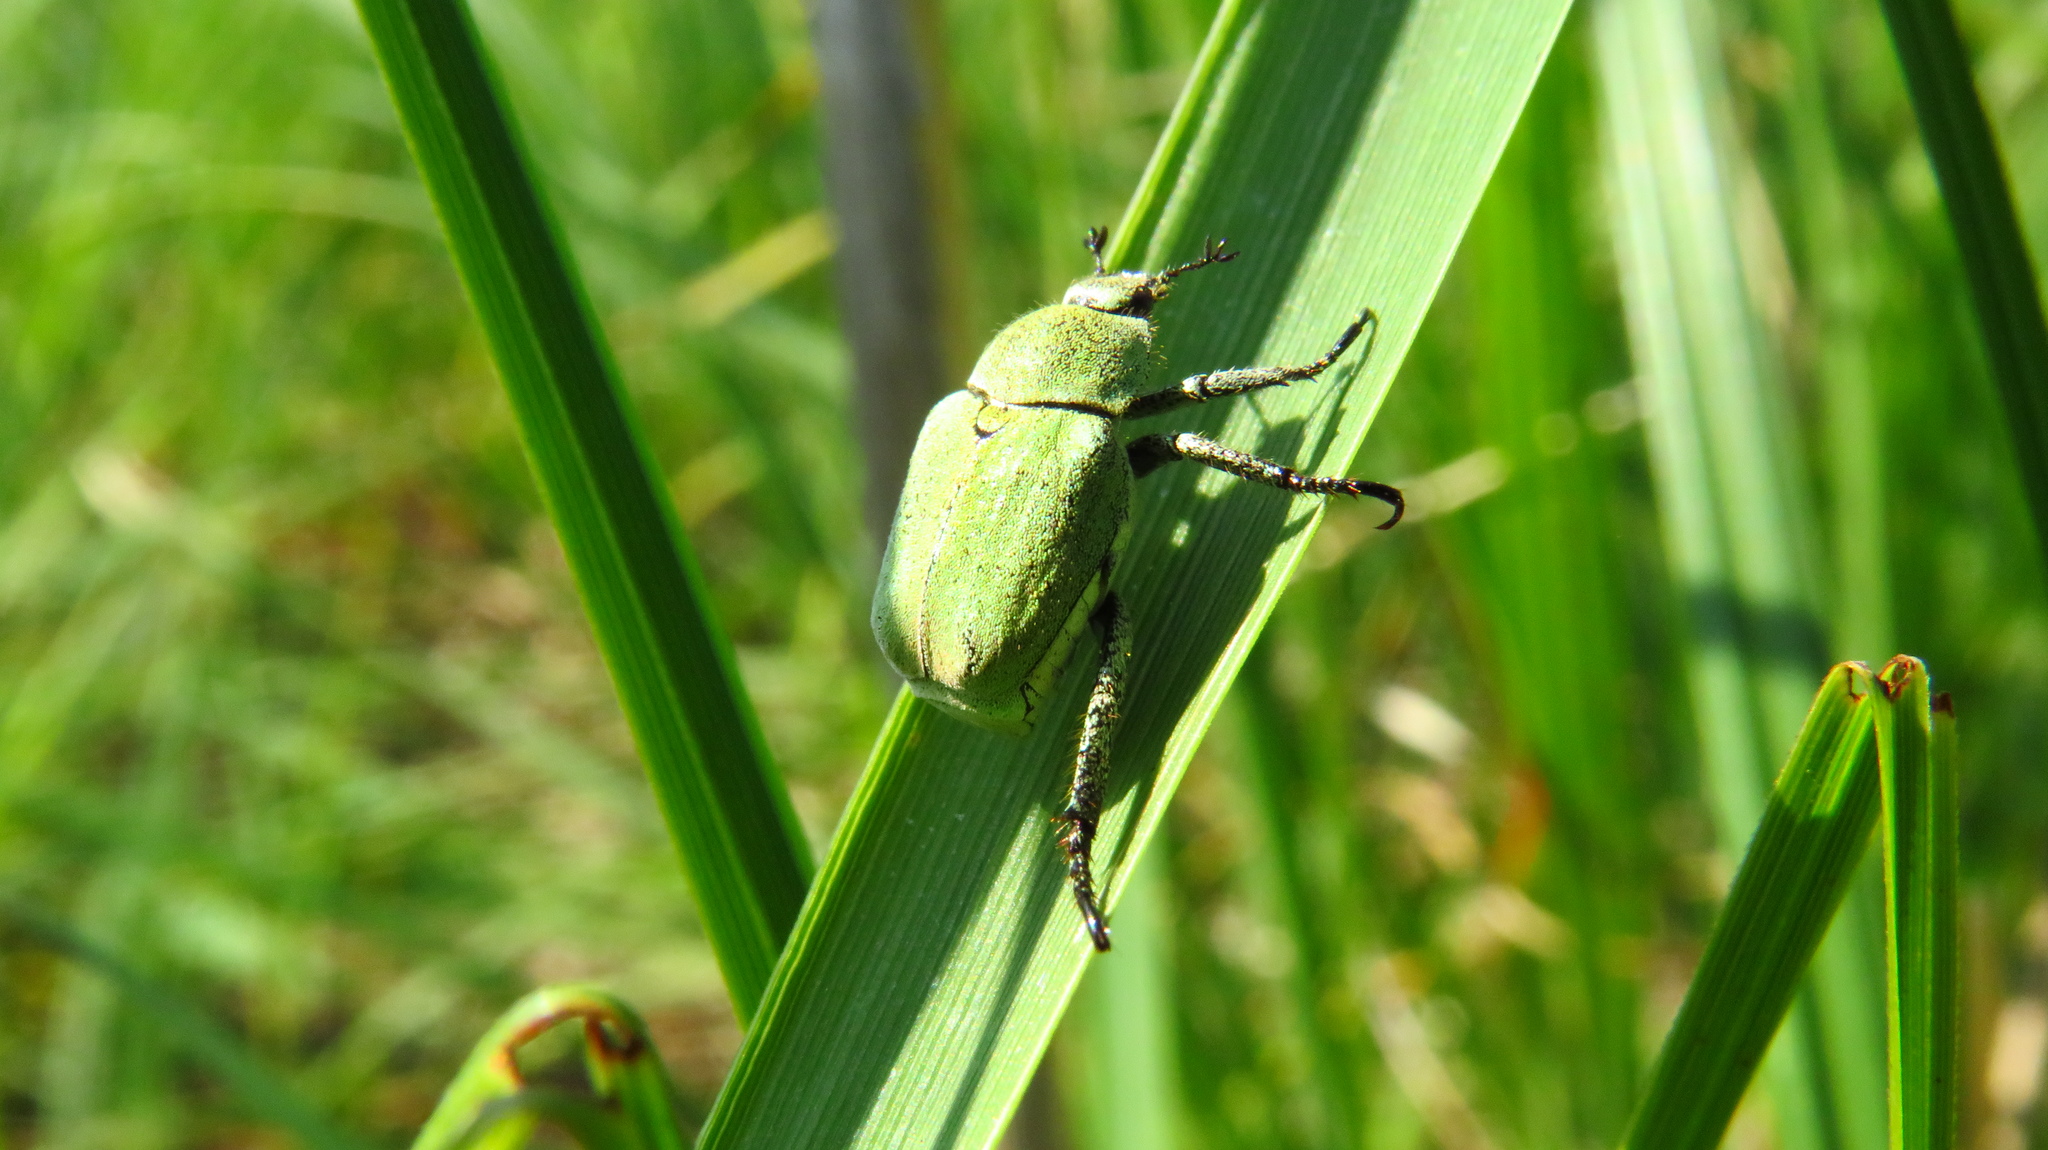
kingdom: Animalia
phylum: Arthropoda
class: Insecta
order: Coleoptera
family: Scarabaeidae
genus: Hoplia
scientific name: Hoplia parvula
